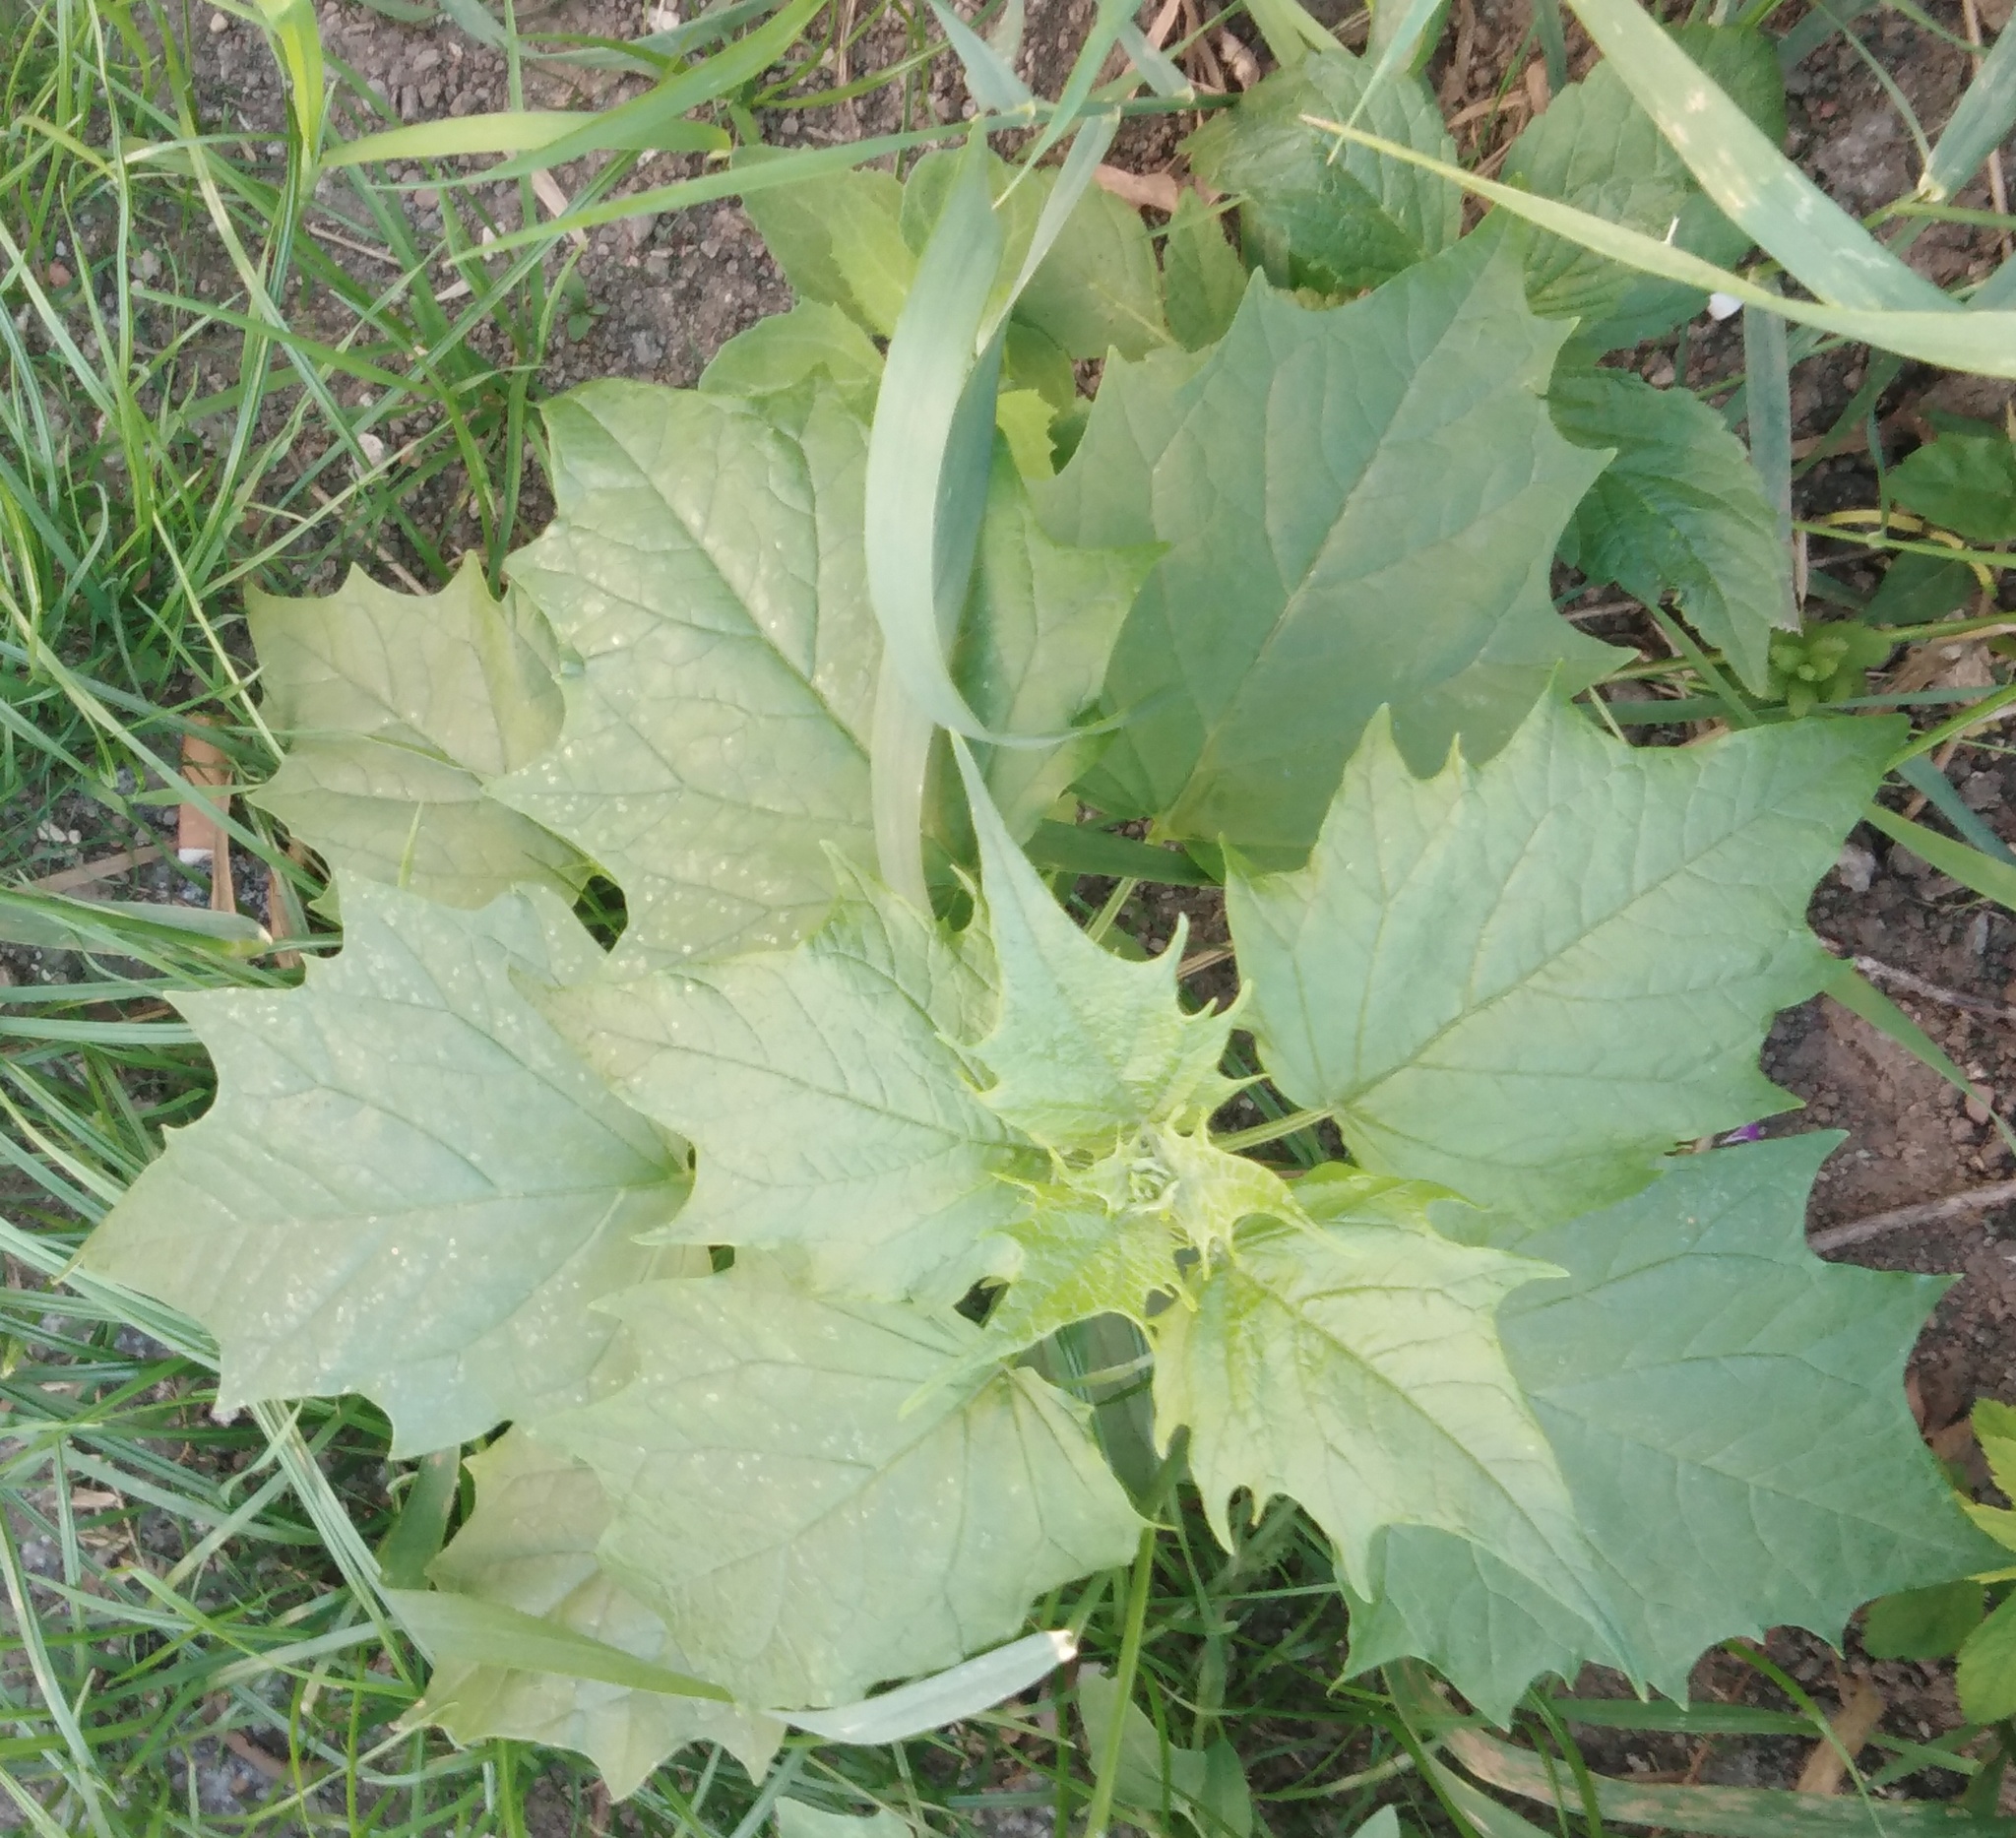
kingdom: Plantae
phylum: Tracheophyta
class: Magnoliopsida
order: Caryophyllales
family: Amaranthaceae
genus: Chenopodiastrum
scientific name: Chenopodiastrum hybridum
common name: Mapleleaf goosefoot
